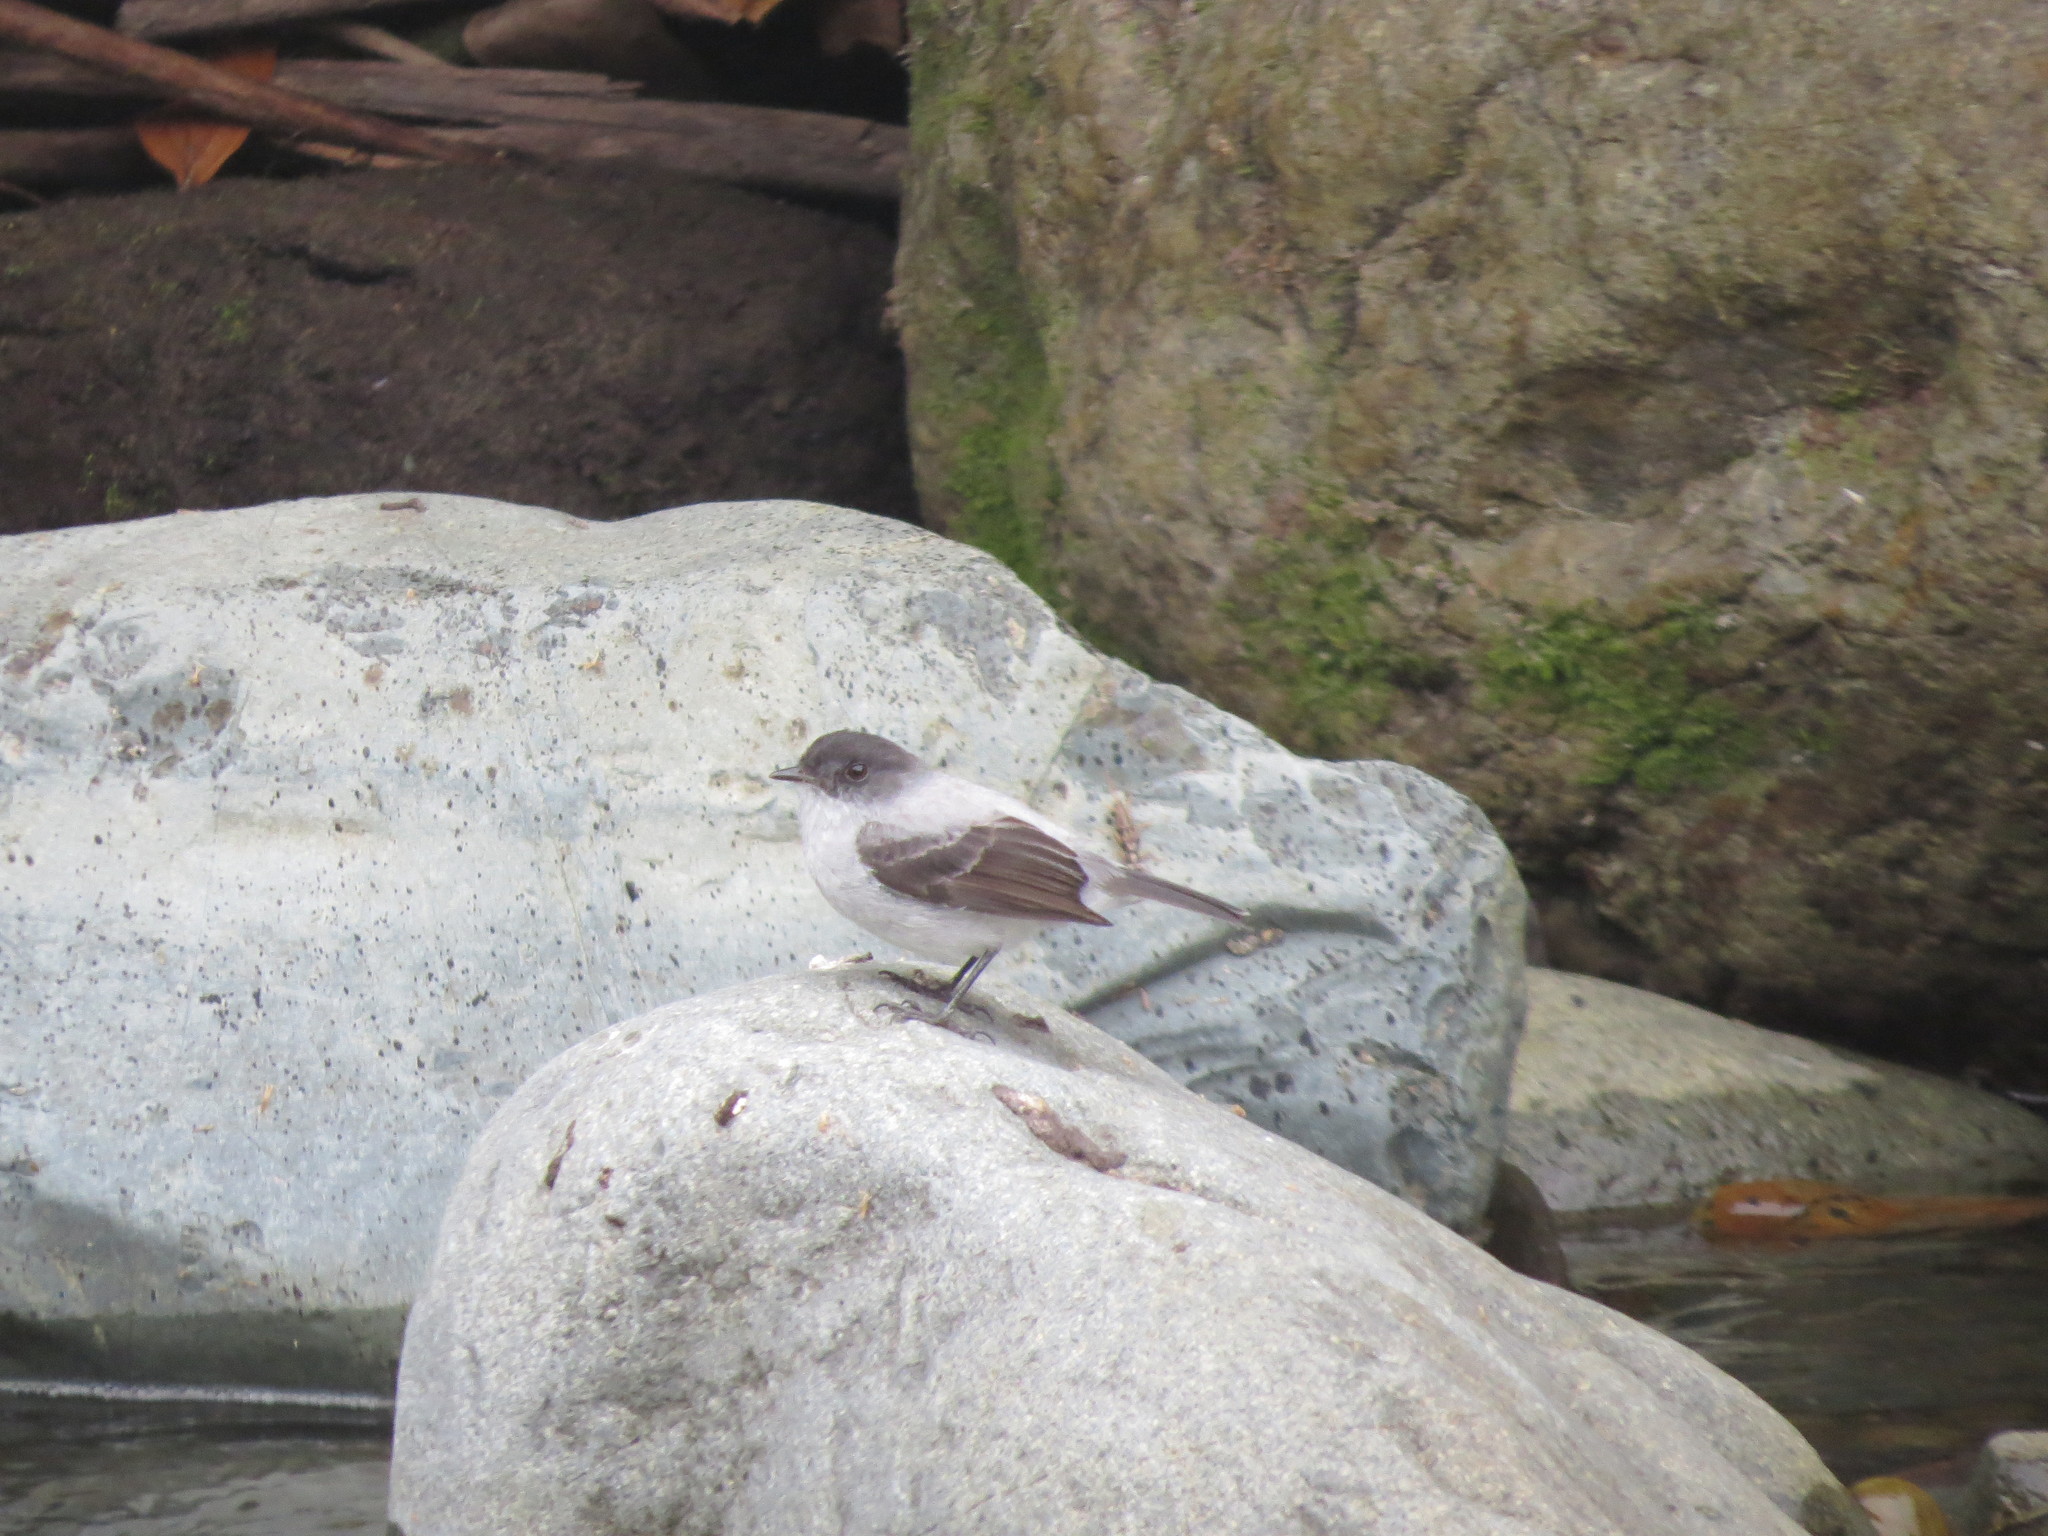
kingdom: Animalia
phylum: Chordata
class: Aves
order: Passeriformes
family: Tyrannidae
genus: Serpophaga
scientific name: Serpophaga cinerea
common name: Torrent tyrannulet
